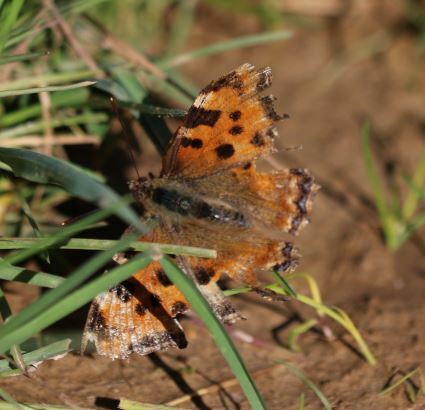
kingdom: Animalia
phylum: Arthropoda
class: Insecta
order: Lepidoptera
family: Nymphalidae
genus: Nymphalis
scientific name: Nymphalis polychloros
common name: Large tortoiseshell
